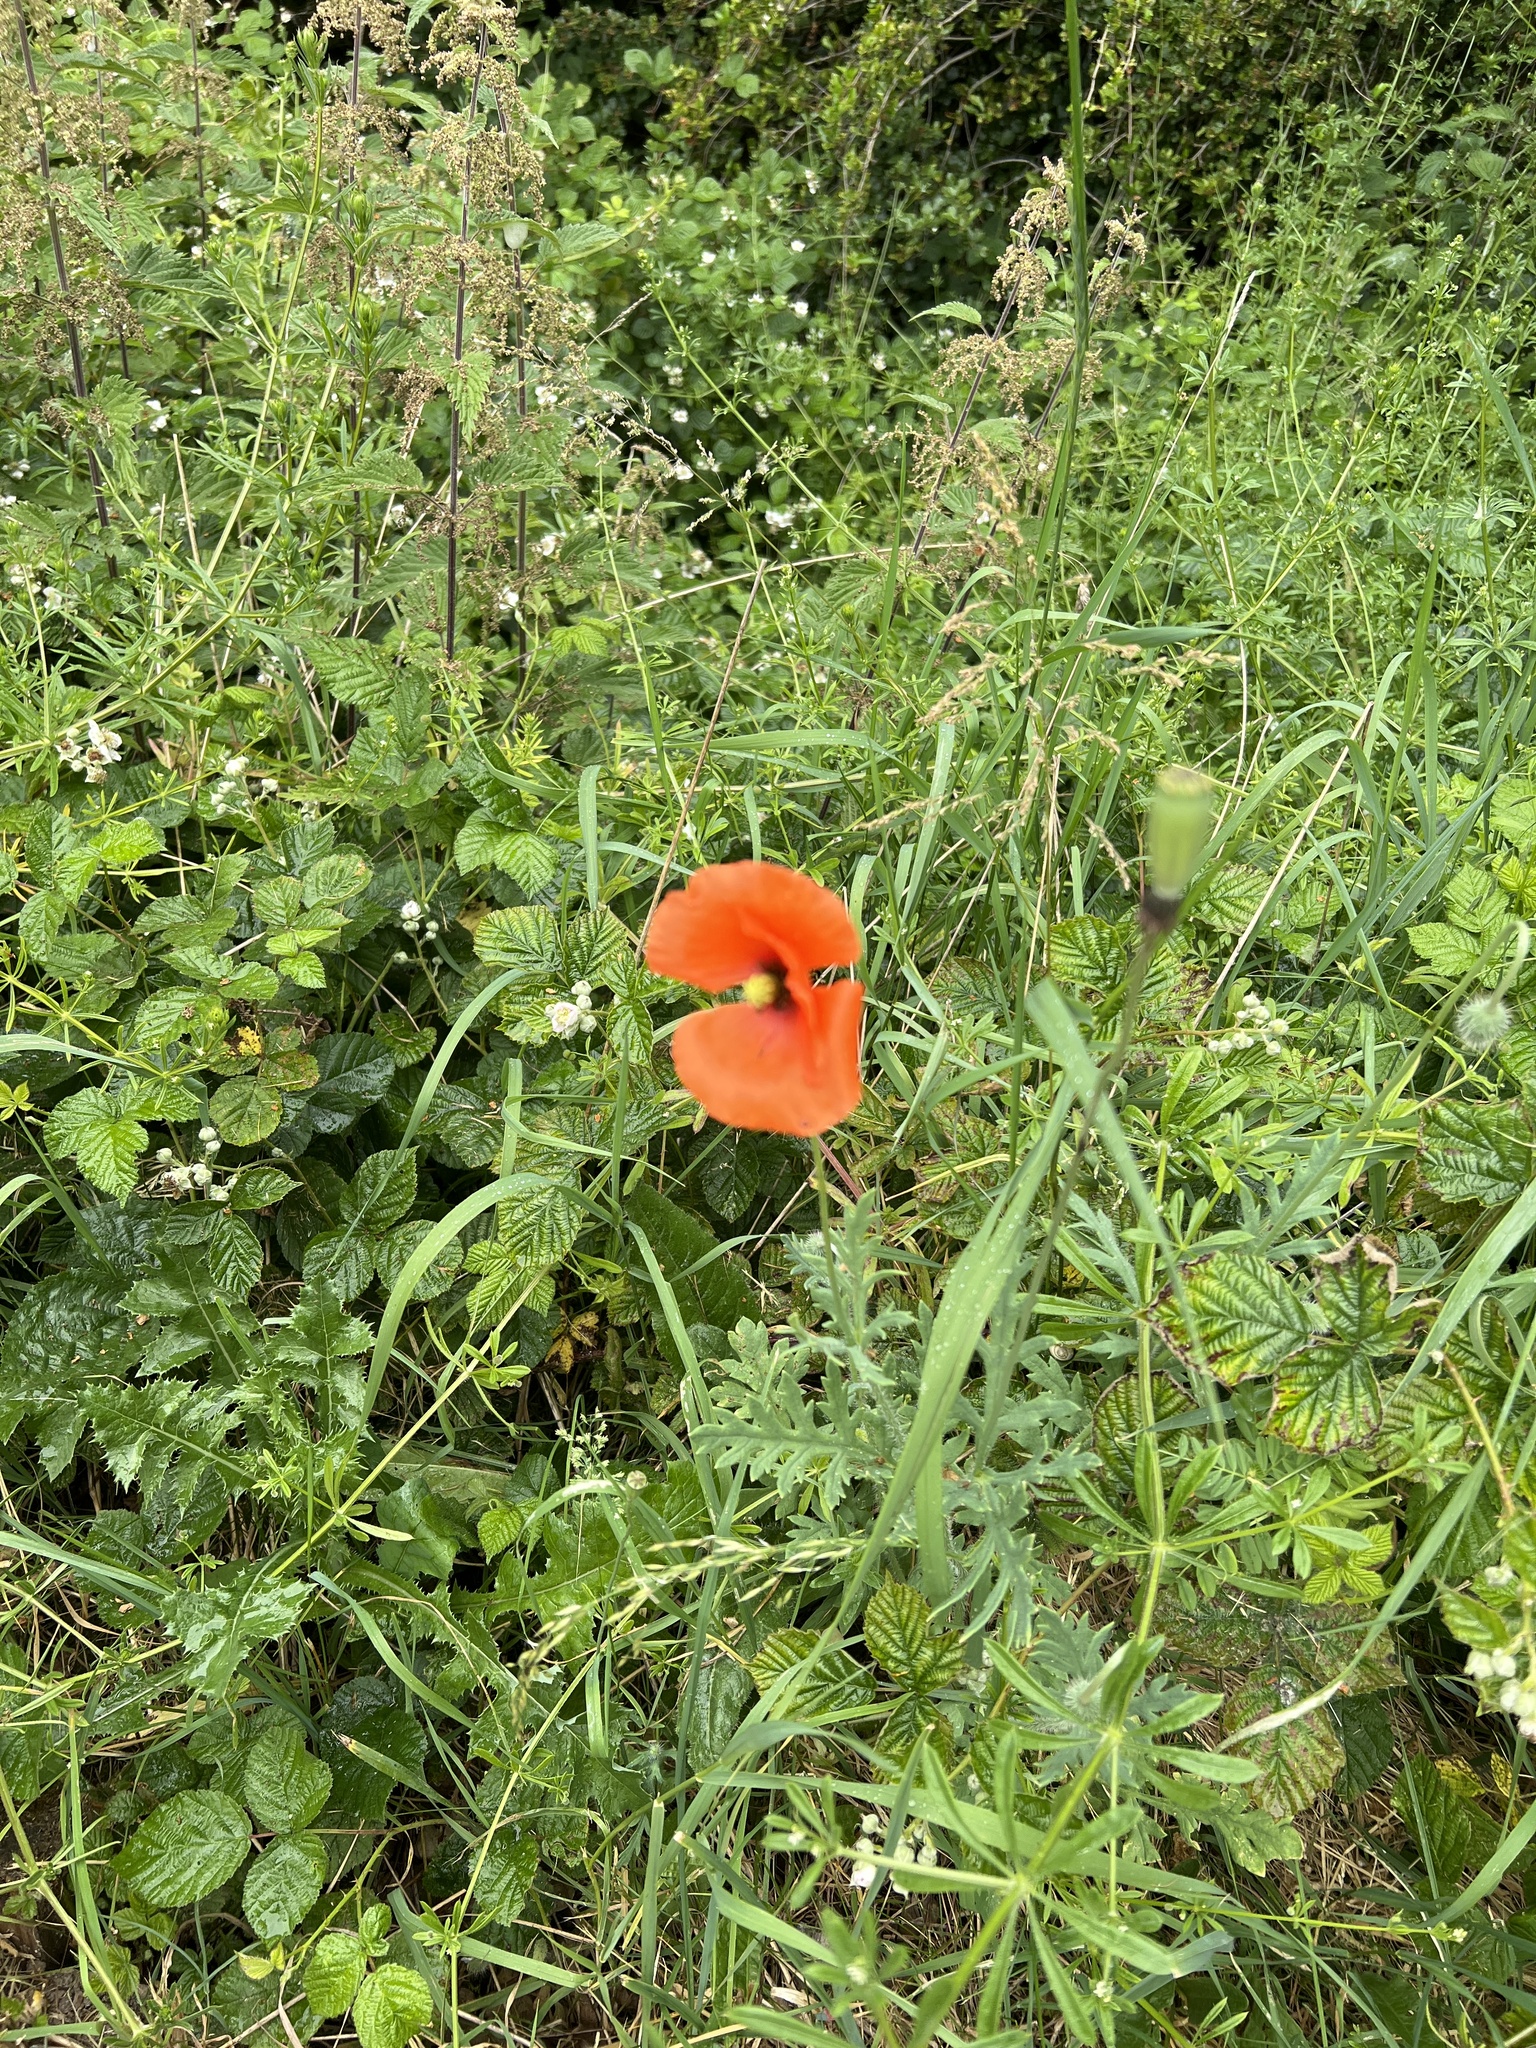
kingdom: Plantae
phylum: Tracheophyta
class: Magnoliopsida
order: Ranunculales
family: Papaveraceae
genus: Papaver
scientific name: Papaver dubium
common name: Long-headed poppy
